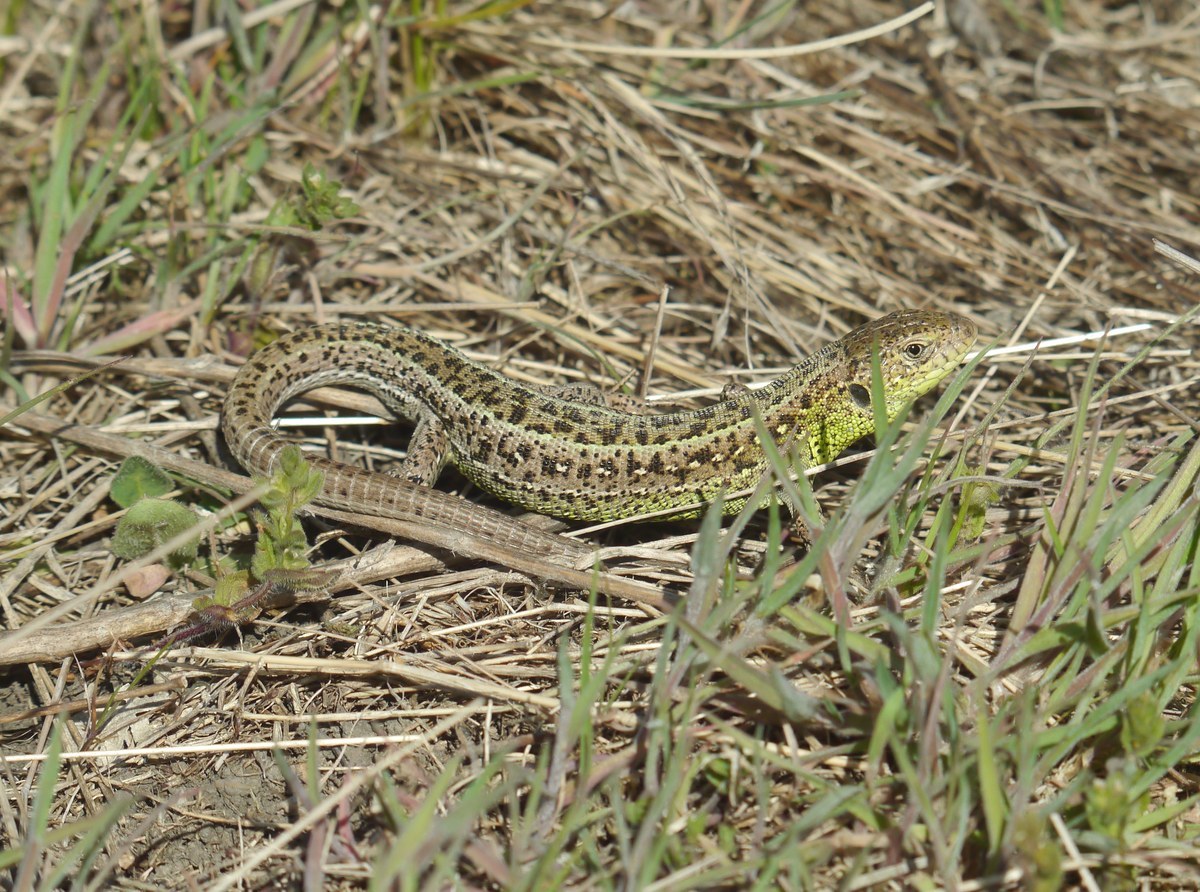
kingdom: Animalia
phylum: Chordata
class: Squamata
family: Lacertidae
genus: Lacerta
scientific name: Lacerta agilis
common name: Sand lizard
